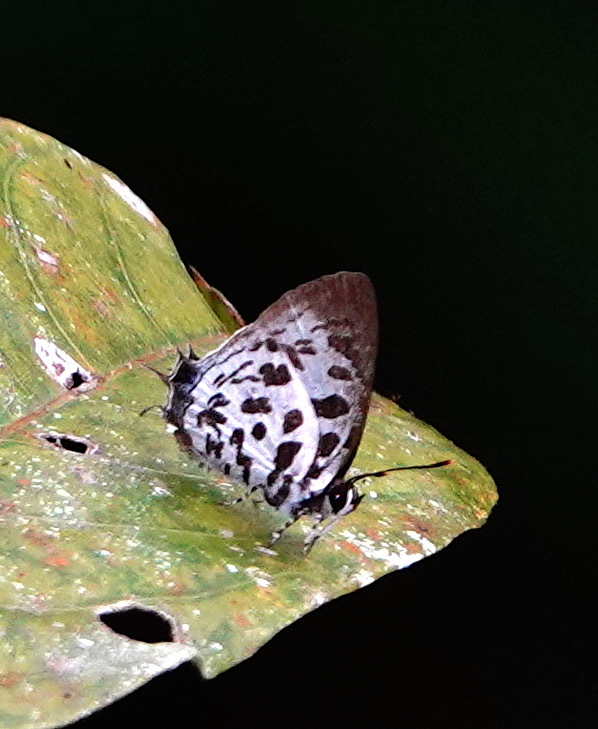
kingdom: Animalia
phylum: Arthropoda
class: Insecta
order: Lepidoptera
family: Lycaenidae
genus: Drupadia
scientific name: Drupadia scaeva
